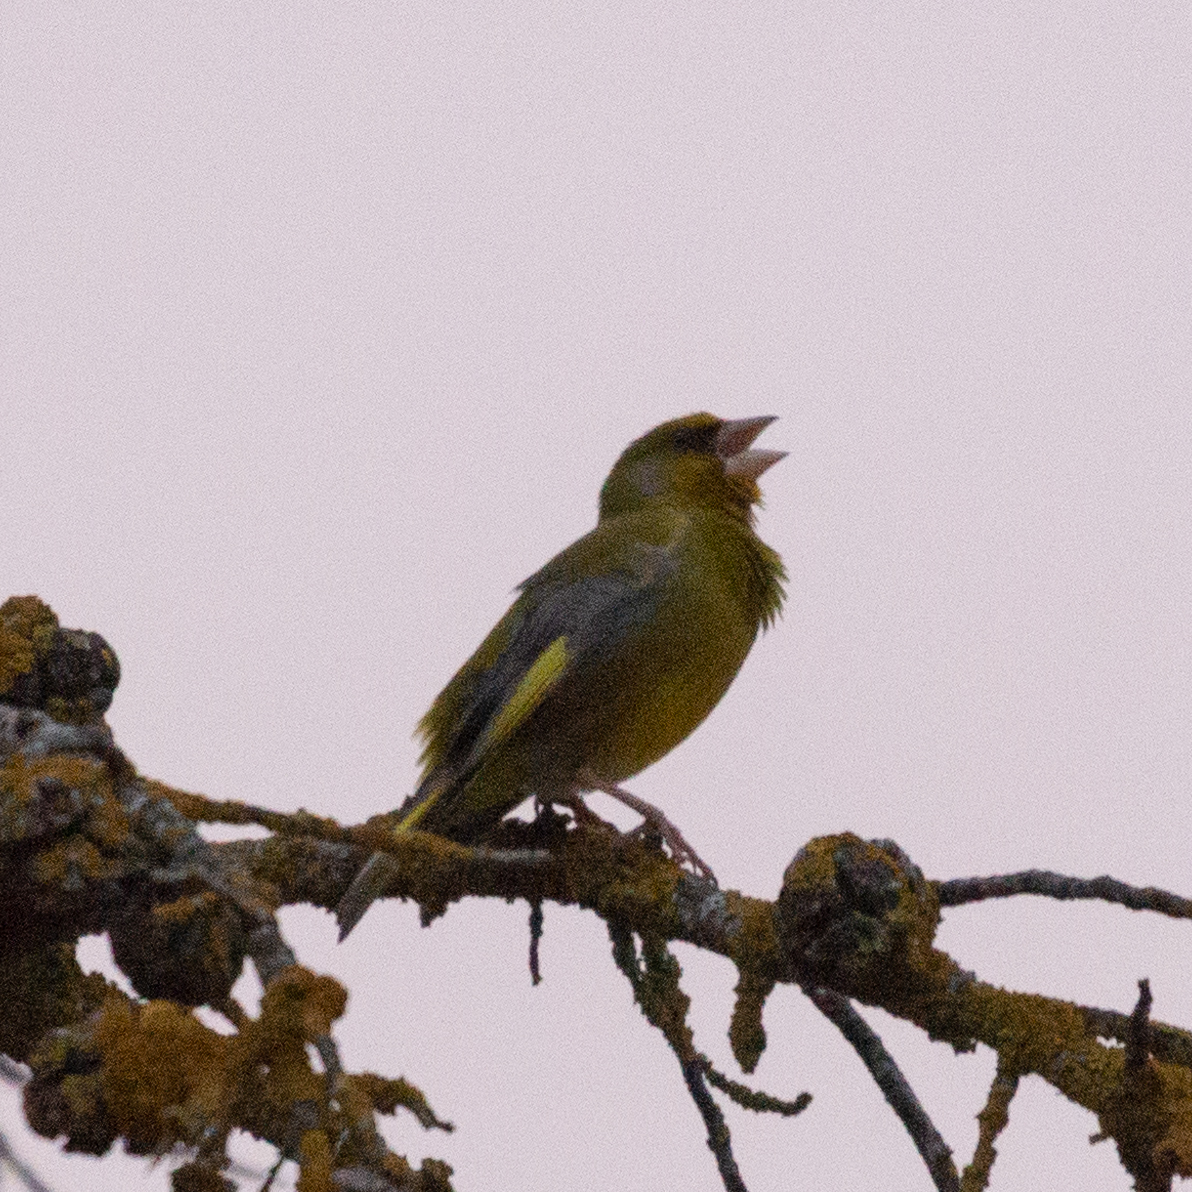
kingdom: Plantae
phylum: Tracheophyta
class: Liliopsida
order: Poales
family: Poaceae
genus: Chloris
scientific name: Chloris chloris
